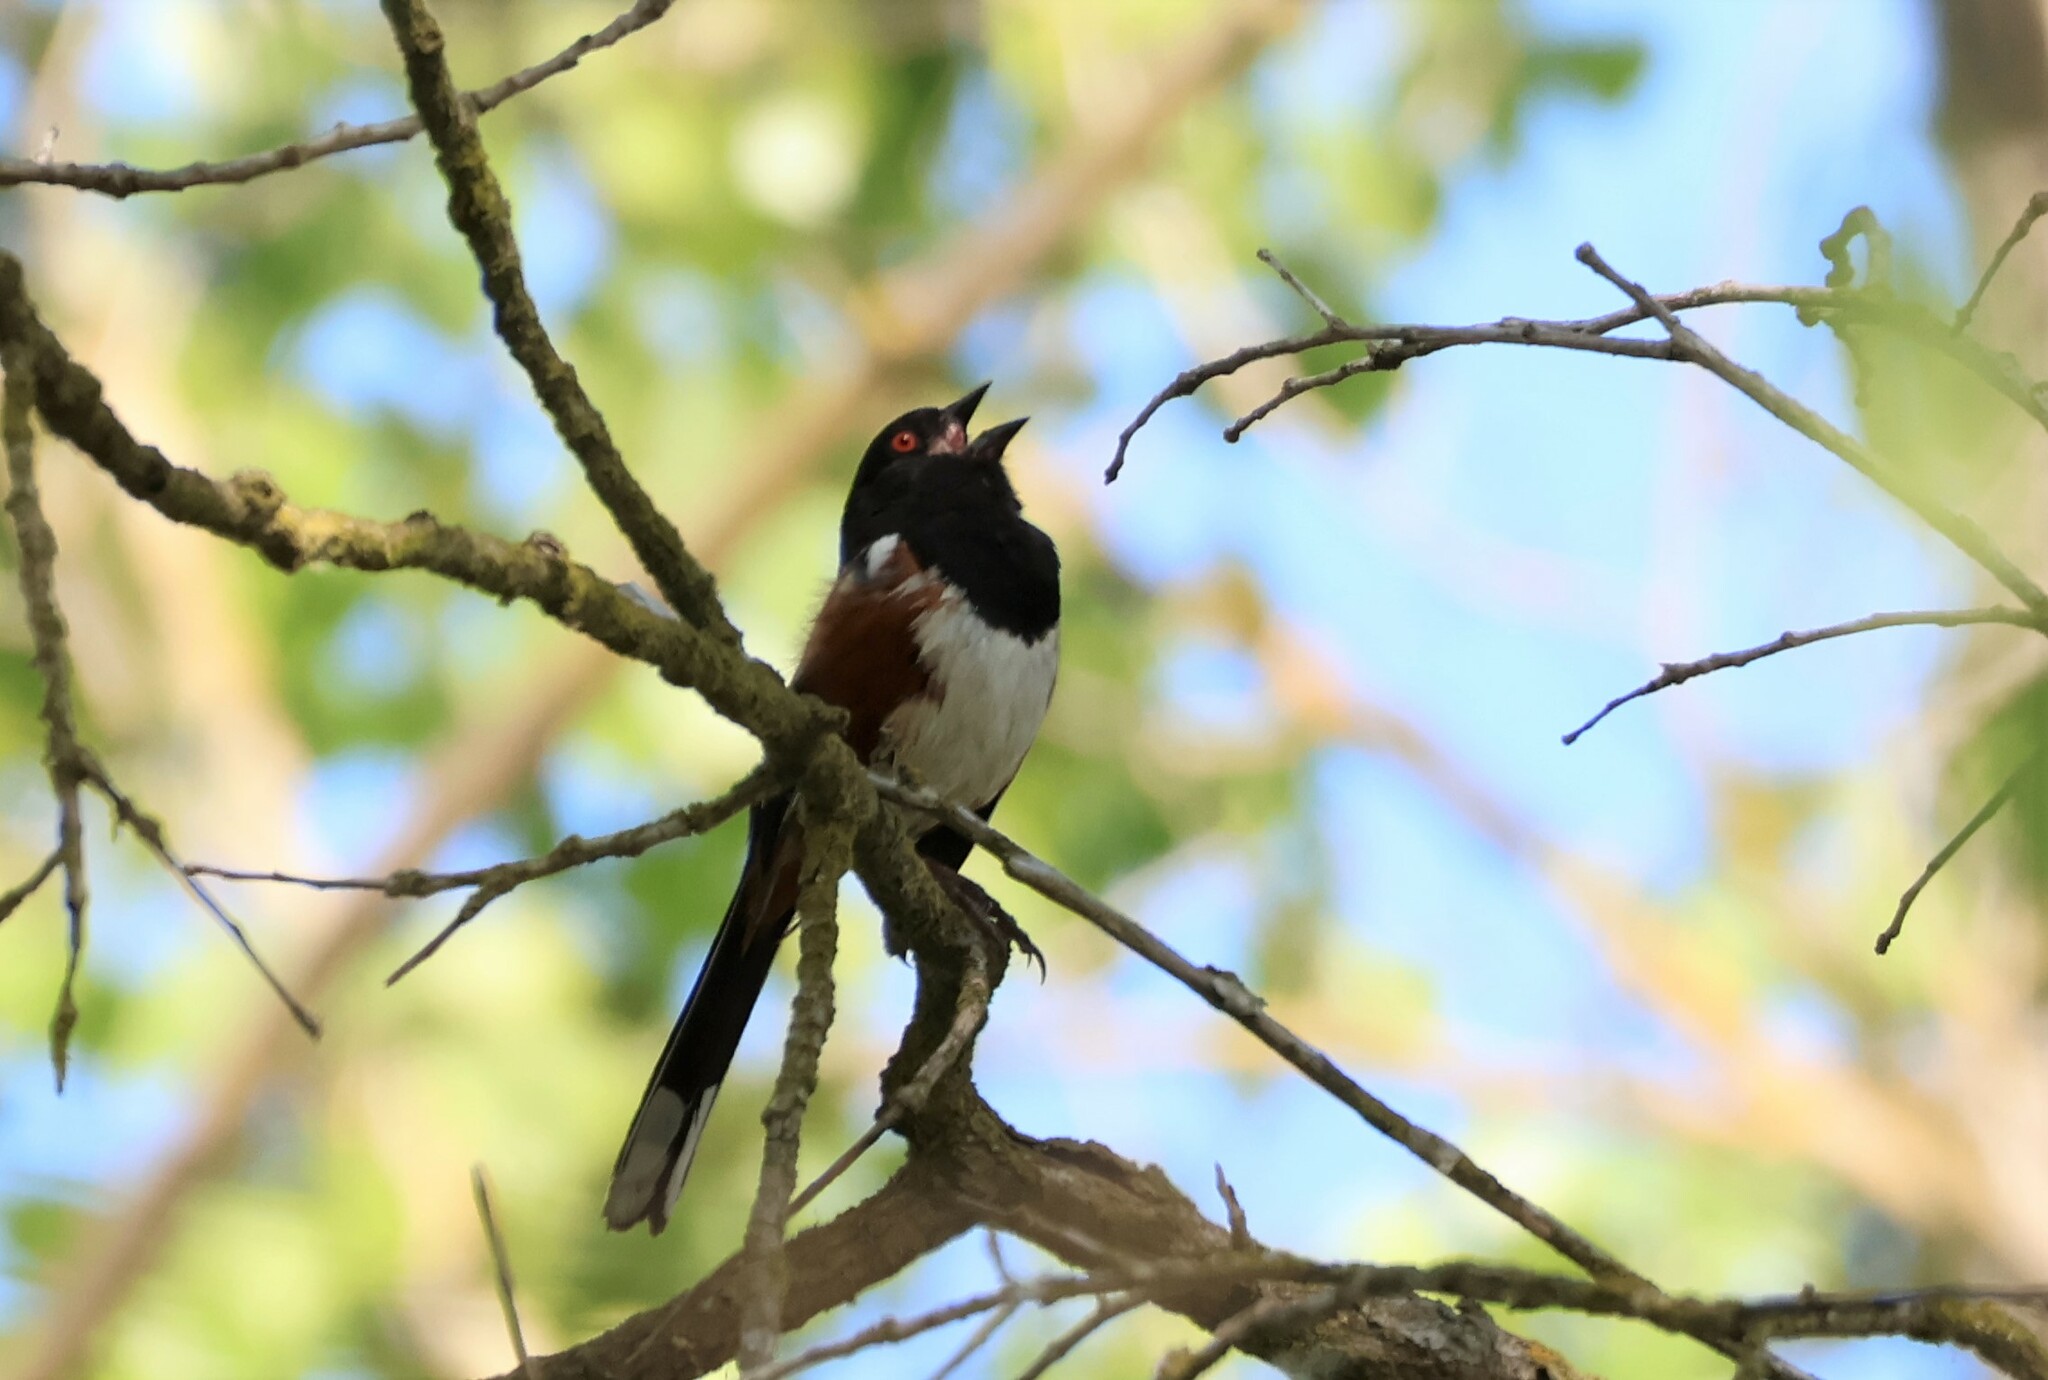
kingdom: Animalia
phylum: Chordata
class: Aves
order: Passeriformes
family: Passerellidae
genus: Pipilo
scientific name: Pipilo maculatus
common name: Spotted towhee
